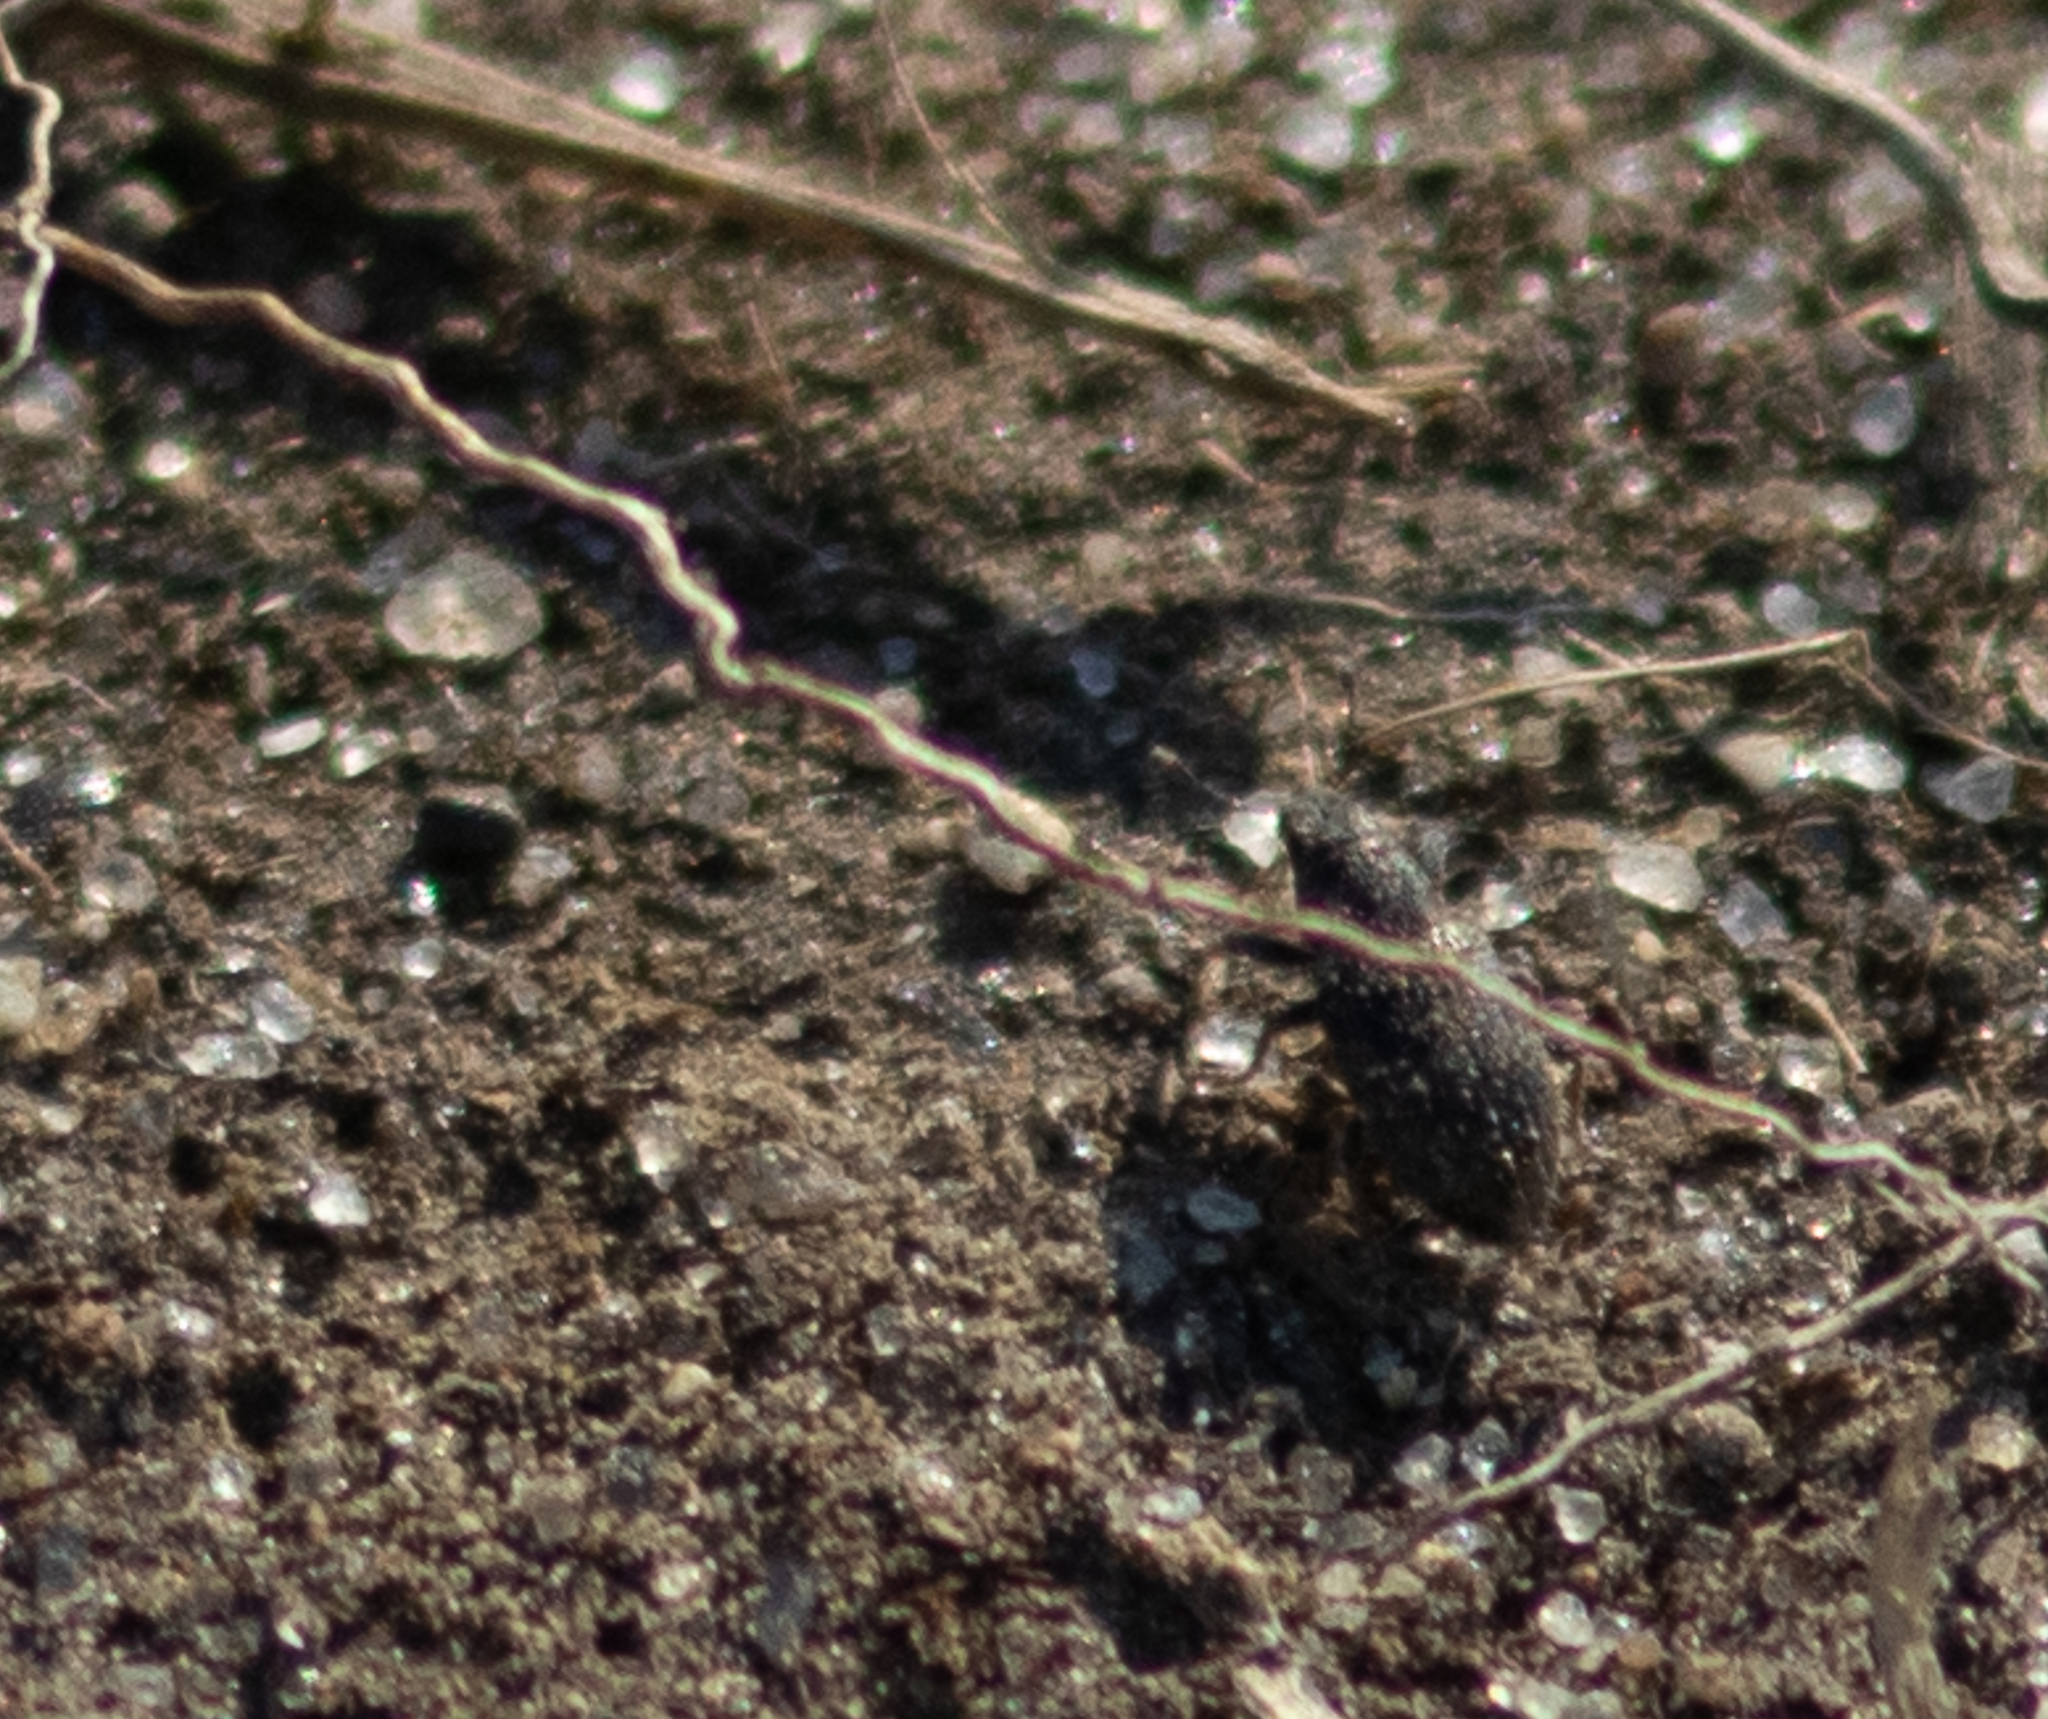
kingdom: Animalia
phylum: Arthropoda
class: Insecta
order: Coleoptera
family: Curculionidae
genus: Sitona
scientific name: Sitona hispidulus
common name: Clover weevil
